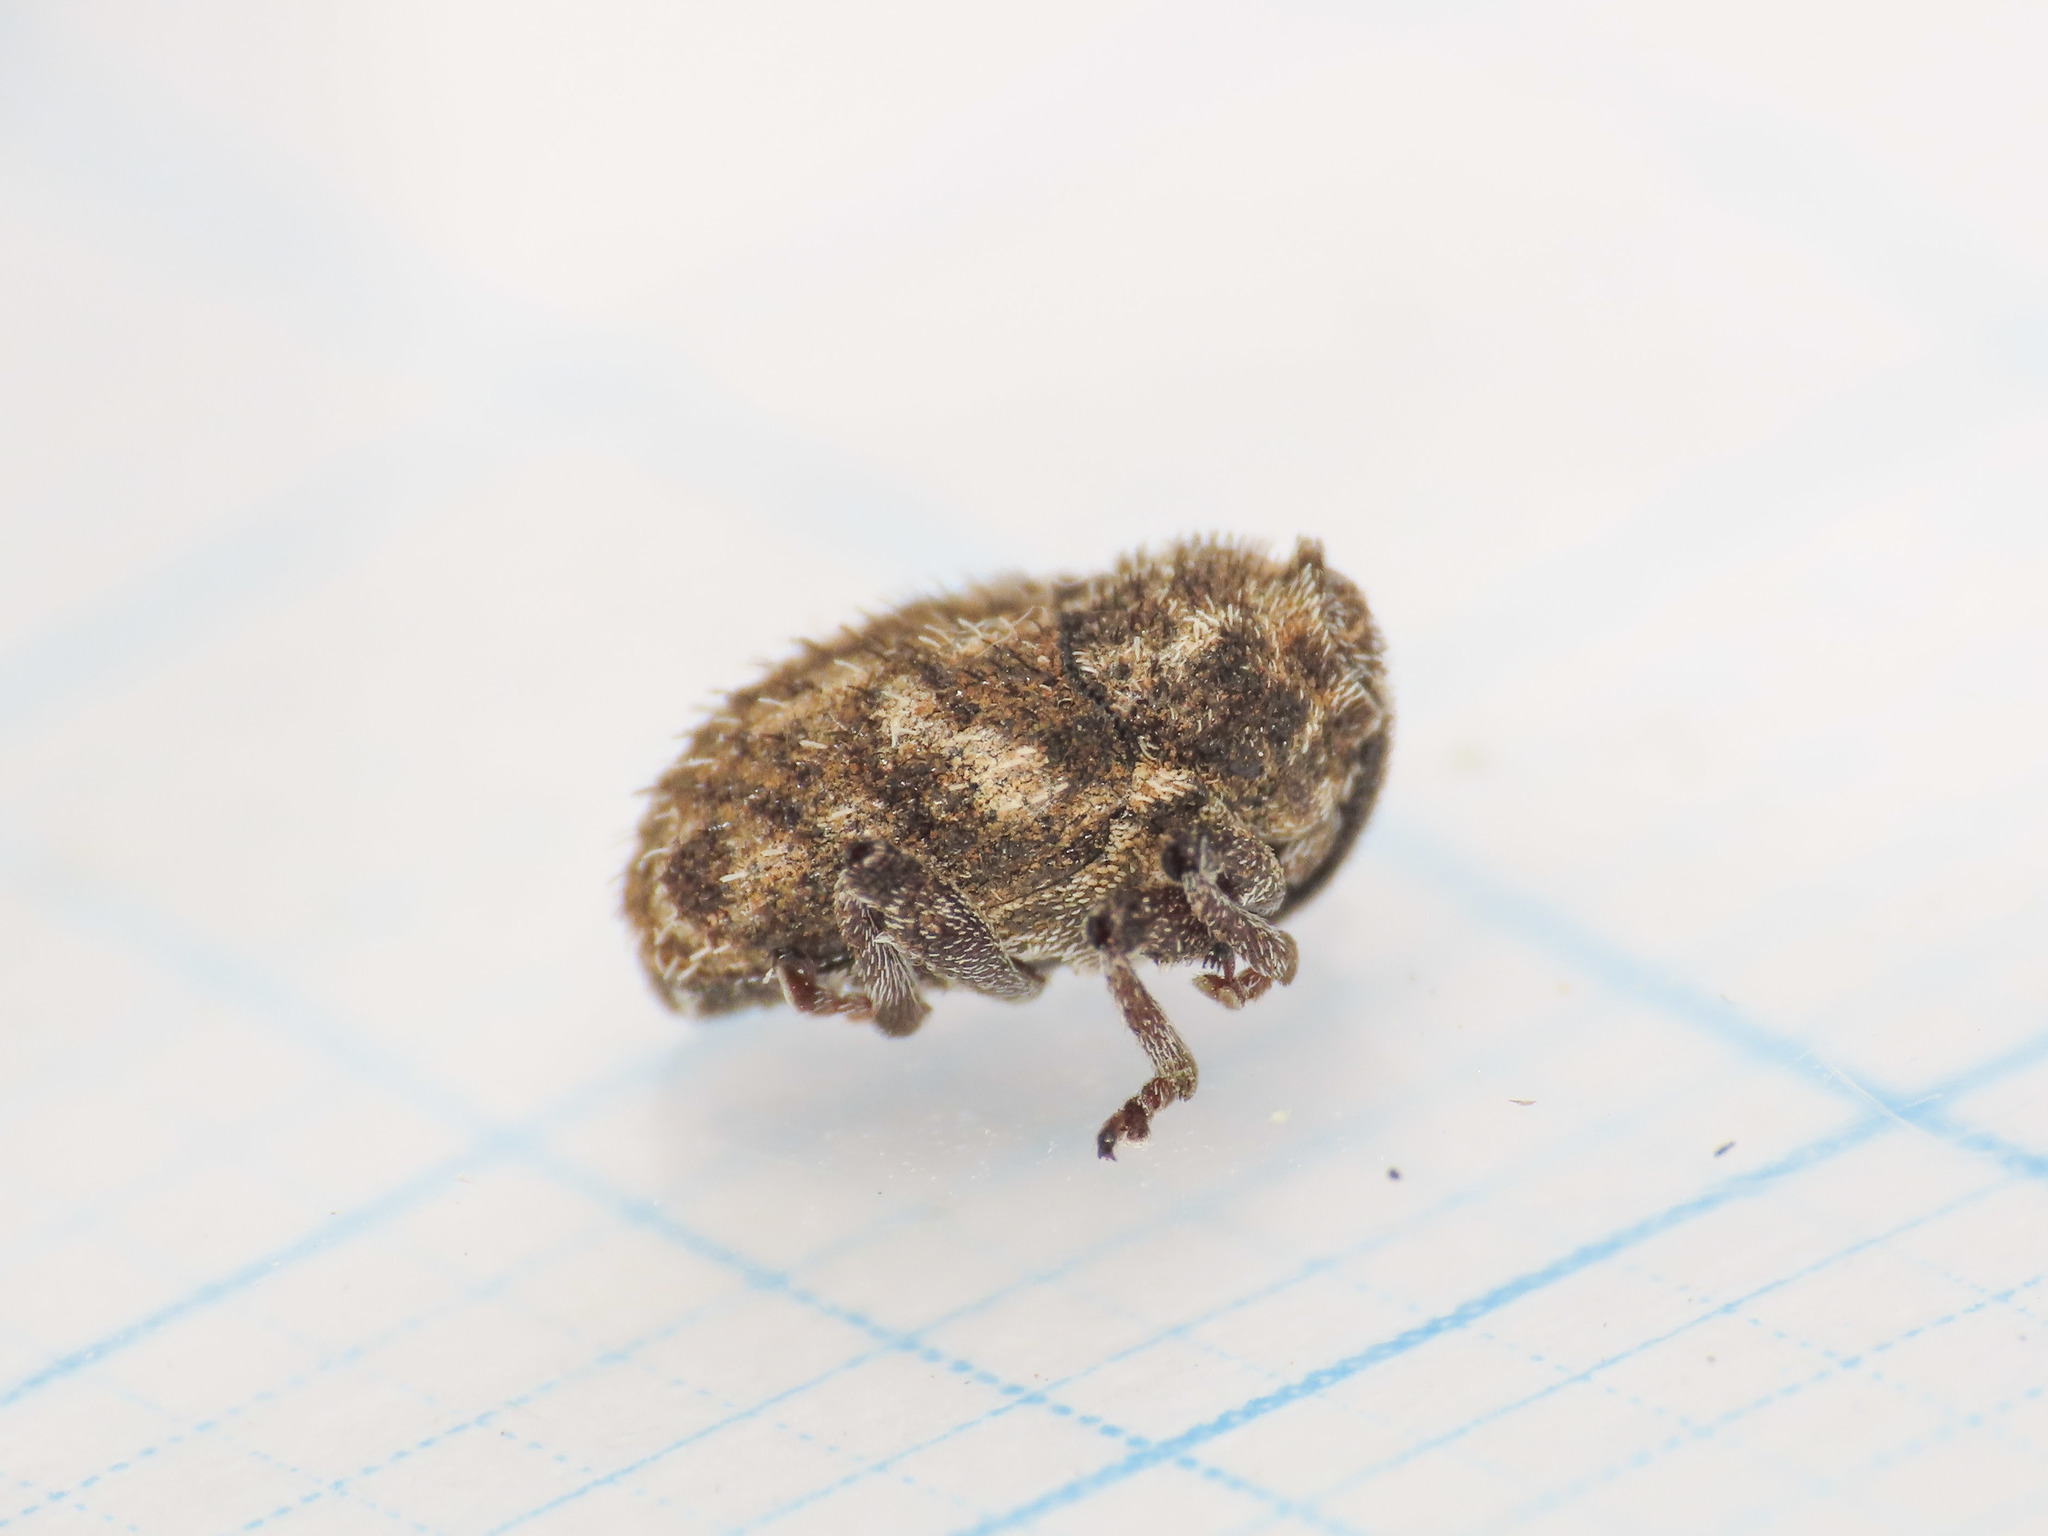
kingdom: Animalia
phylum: Arthropoda
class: Insecta
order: Coleoptera
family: Curculionidae
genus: Trichosirocalus
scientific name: Trichosirocalus horridus
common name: Musk thistle rosette weevil
